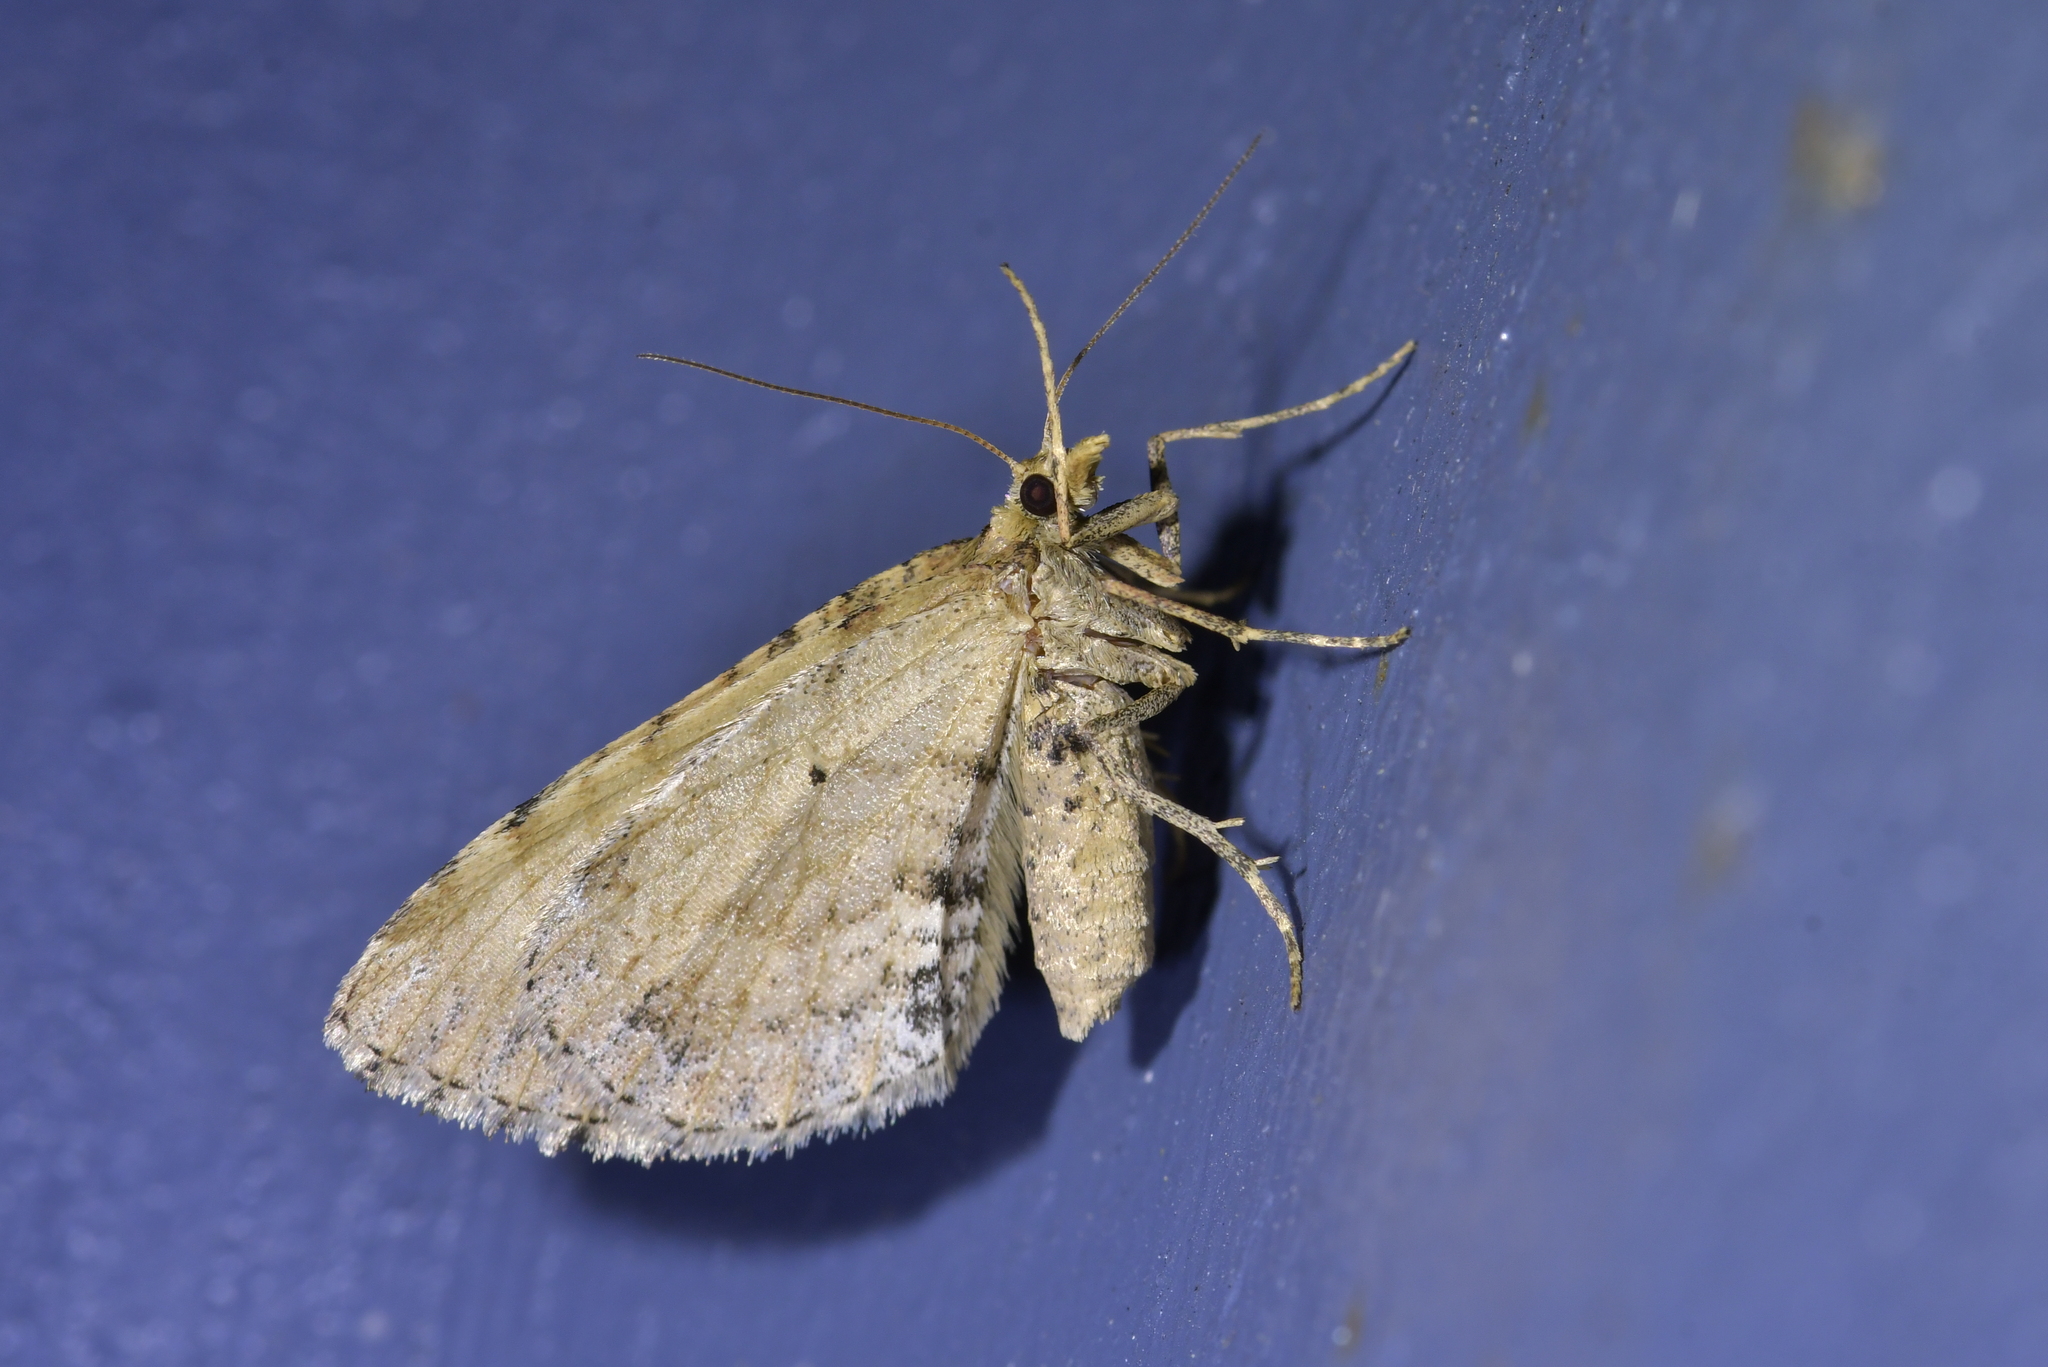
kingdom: Animalia
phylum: Arthropoda
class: Insecta
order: Lepidoptera
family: Geometridae
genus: Asaphodes
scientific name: Asaphodes aegrota
